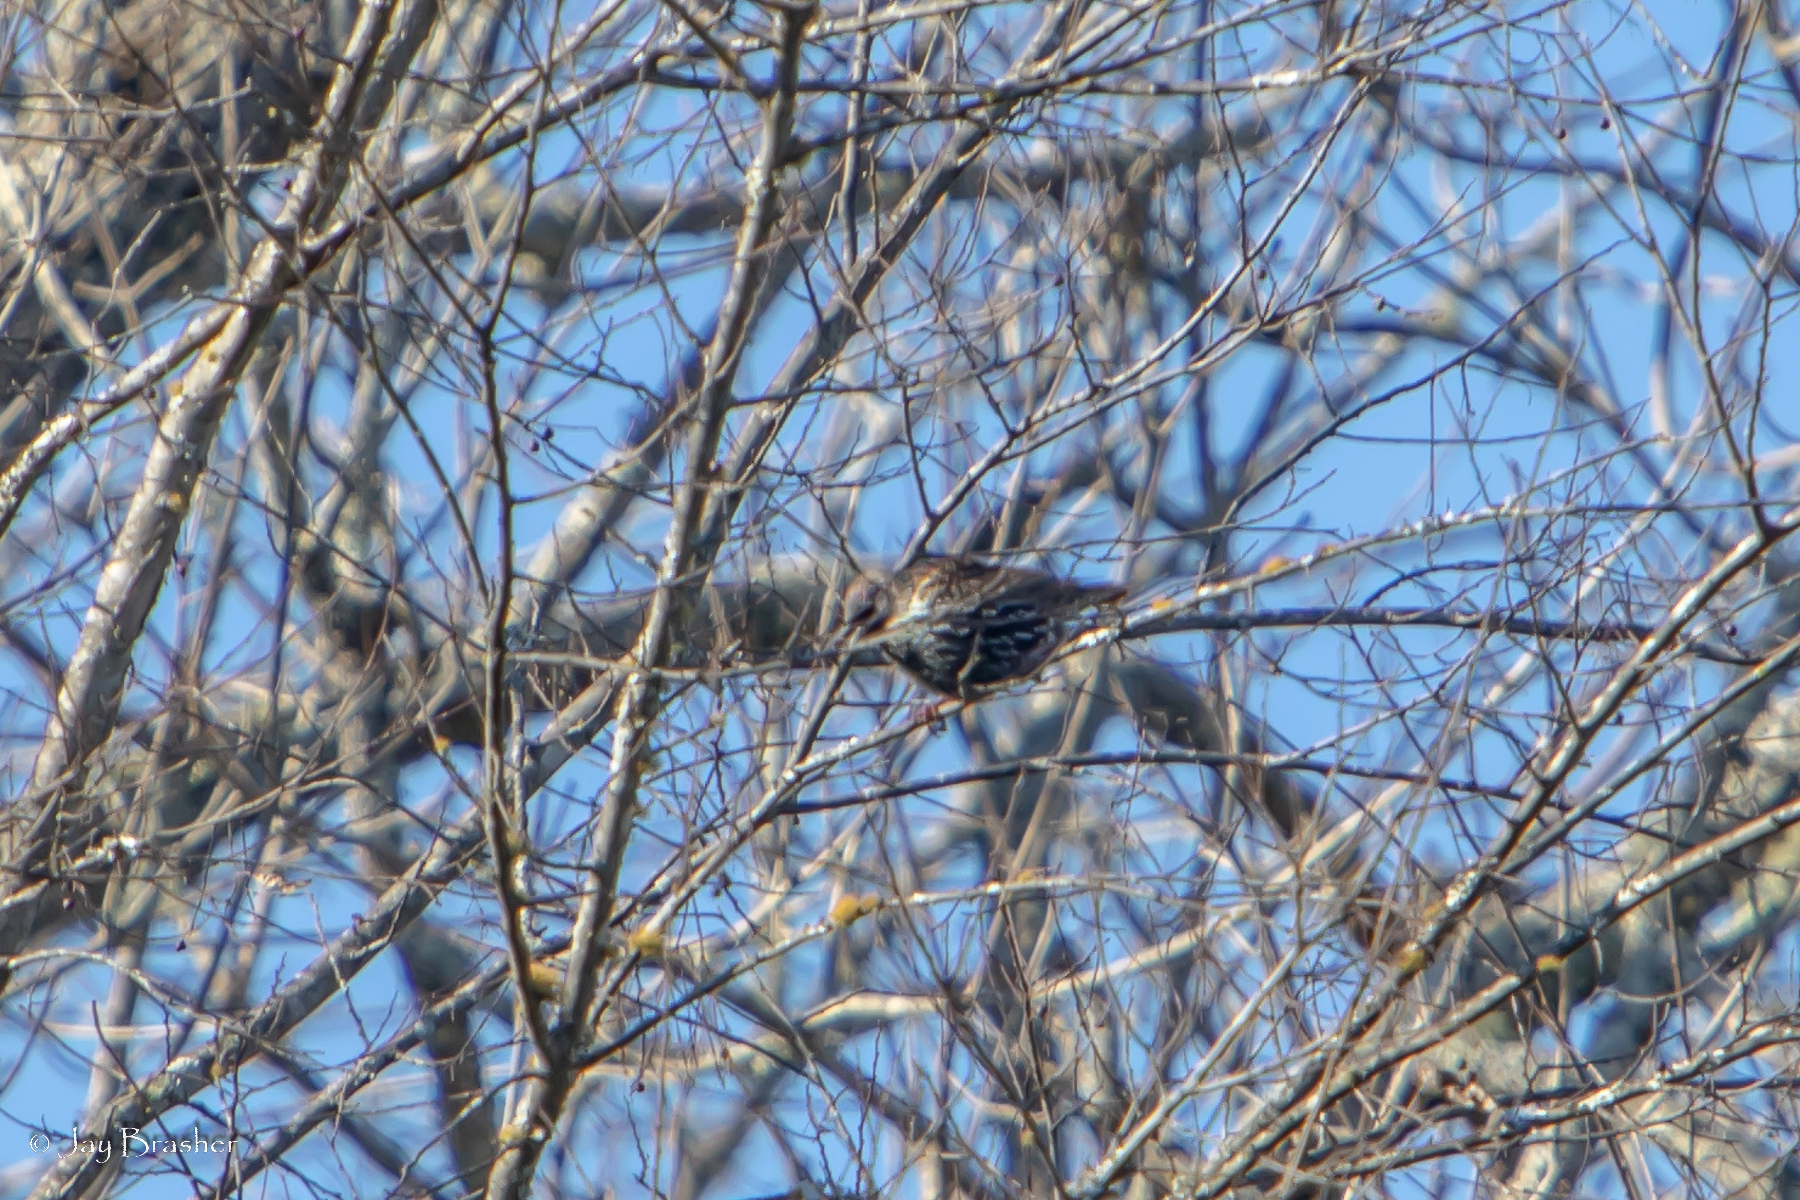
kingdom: Animalia
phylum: Chordata
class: Aves
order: Passeriformes
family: Sturnidae
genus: Sturnus
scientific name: Sturnus vulgaris
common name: Common starling
